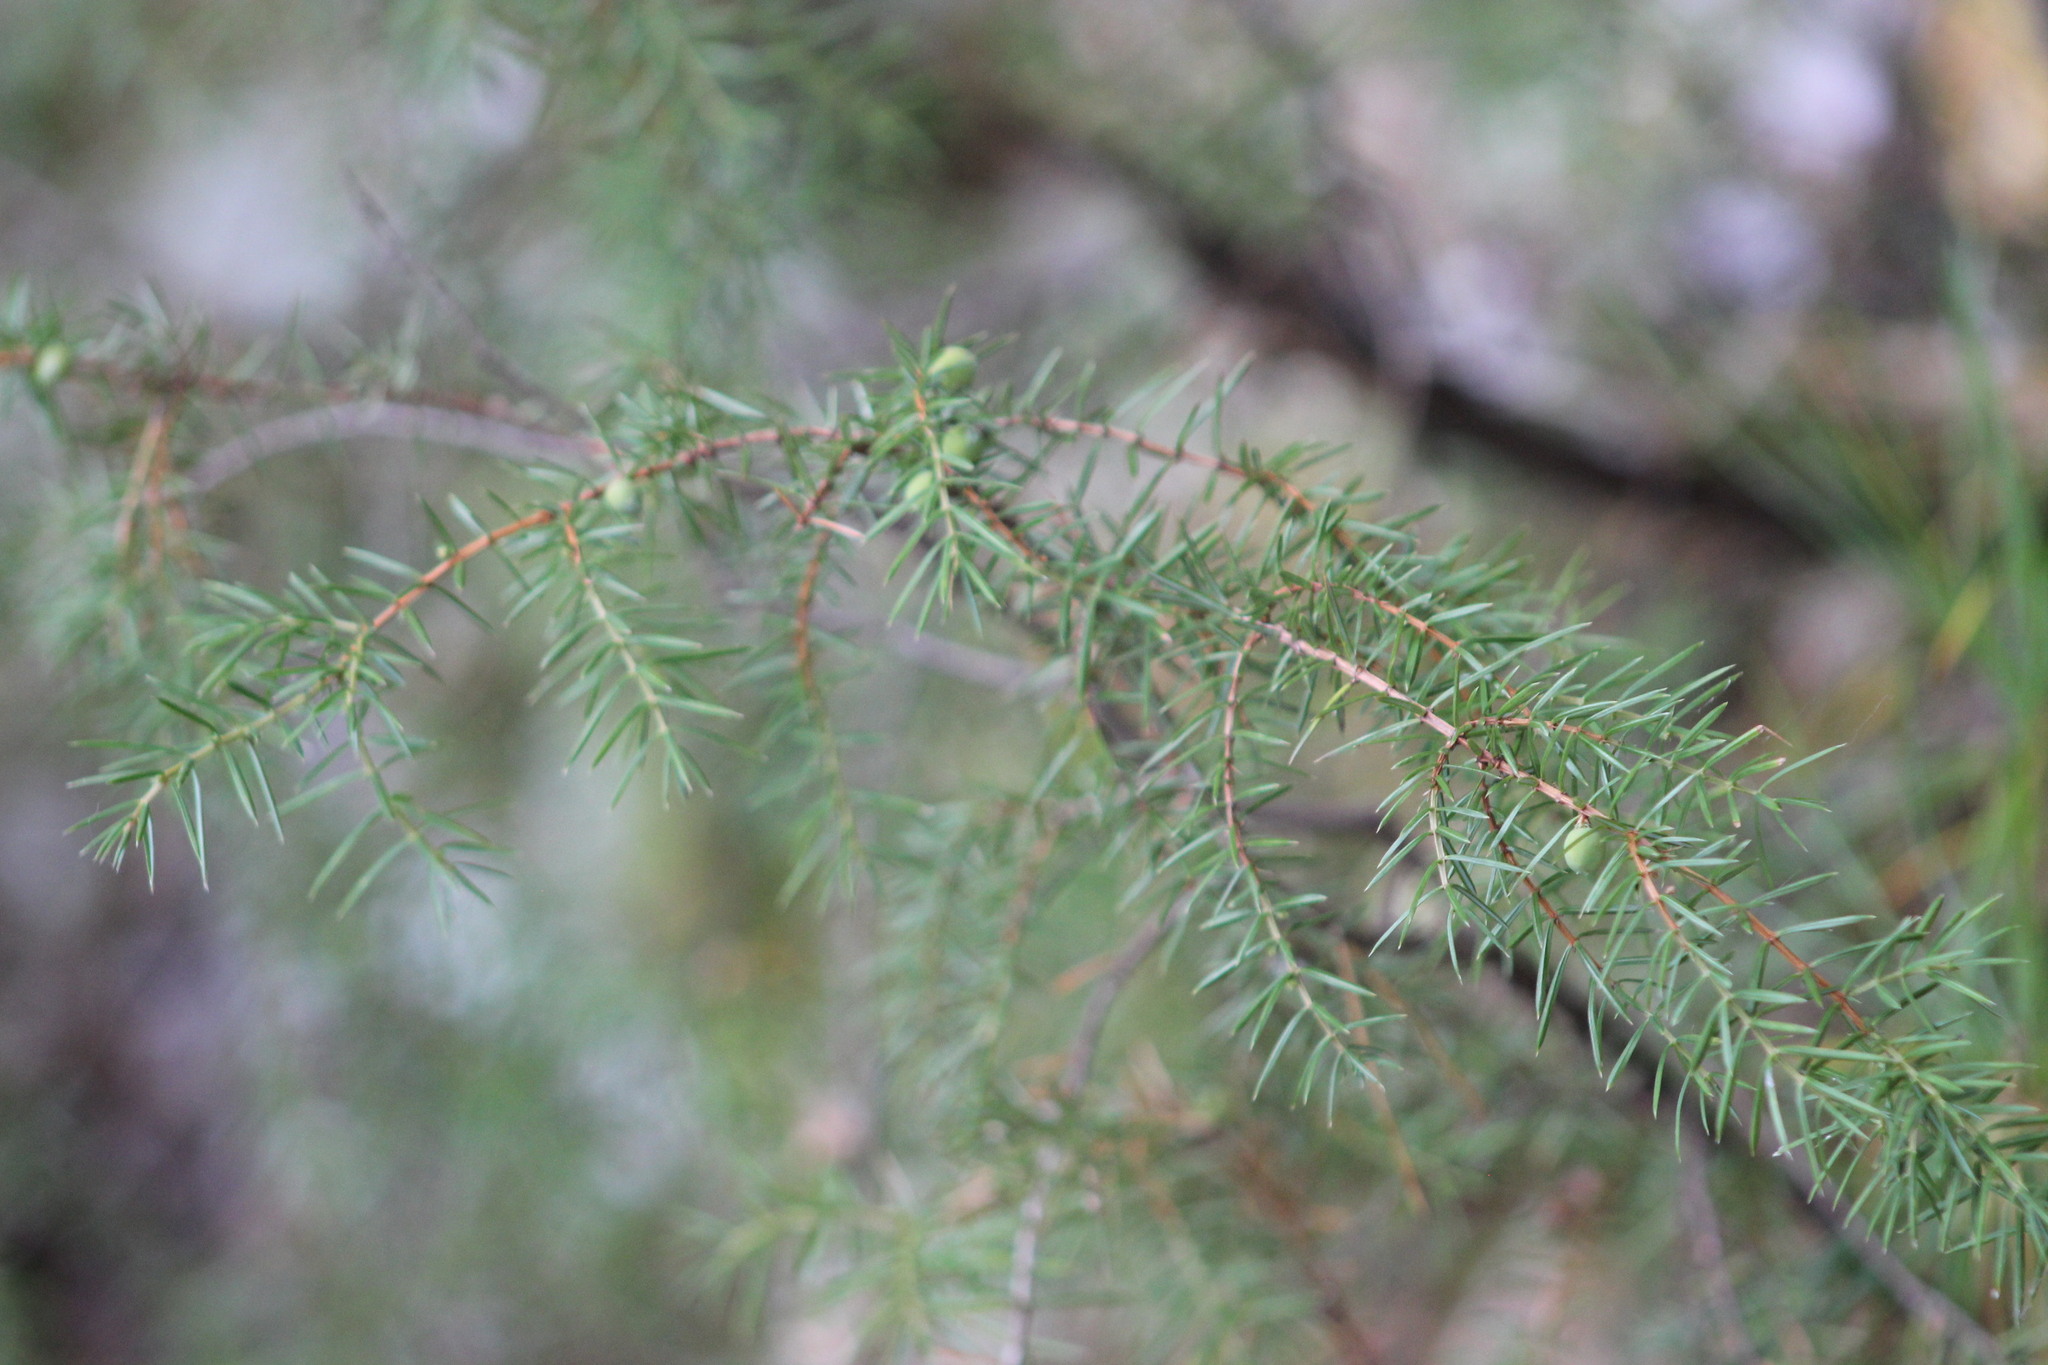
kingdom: Plantae
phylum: Tracheophyta
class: Pinopsida
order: Pinales
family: Cupressaceae
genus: Juniperus
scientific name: Juniperus communis
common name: Common juniper
